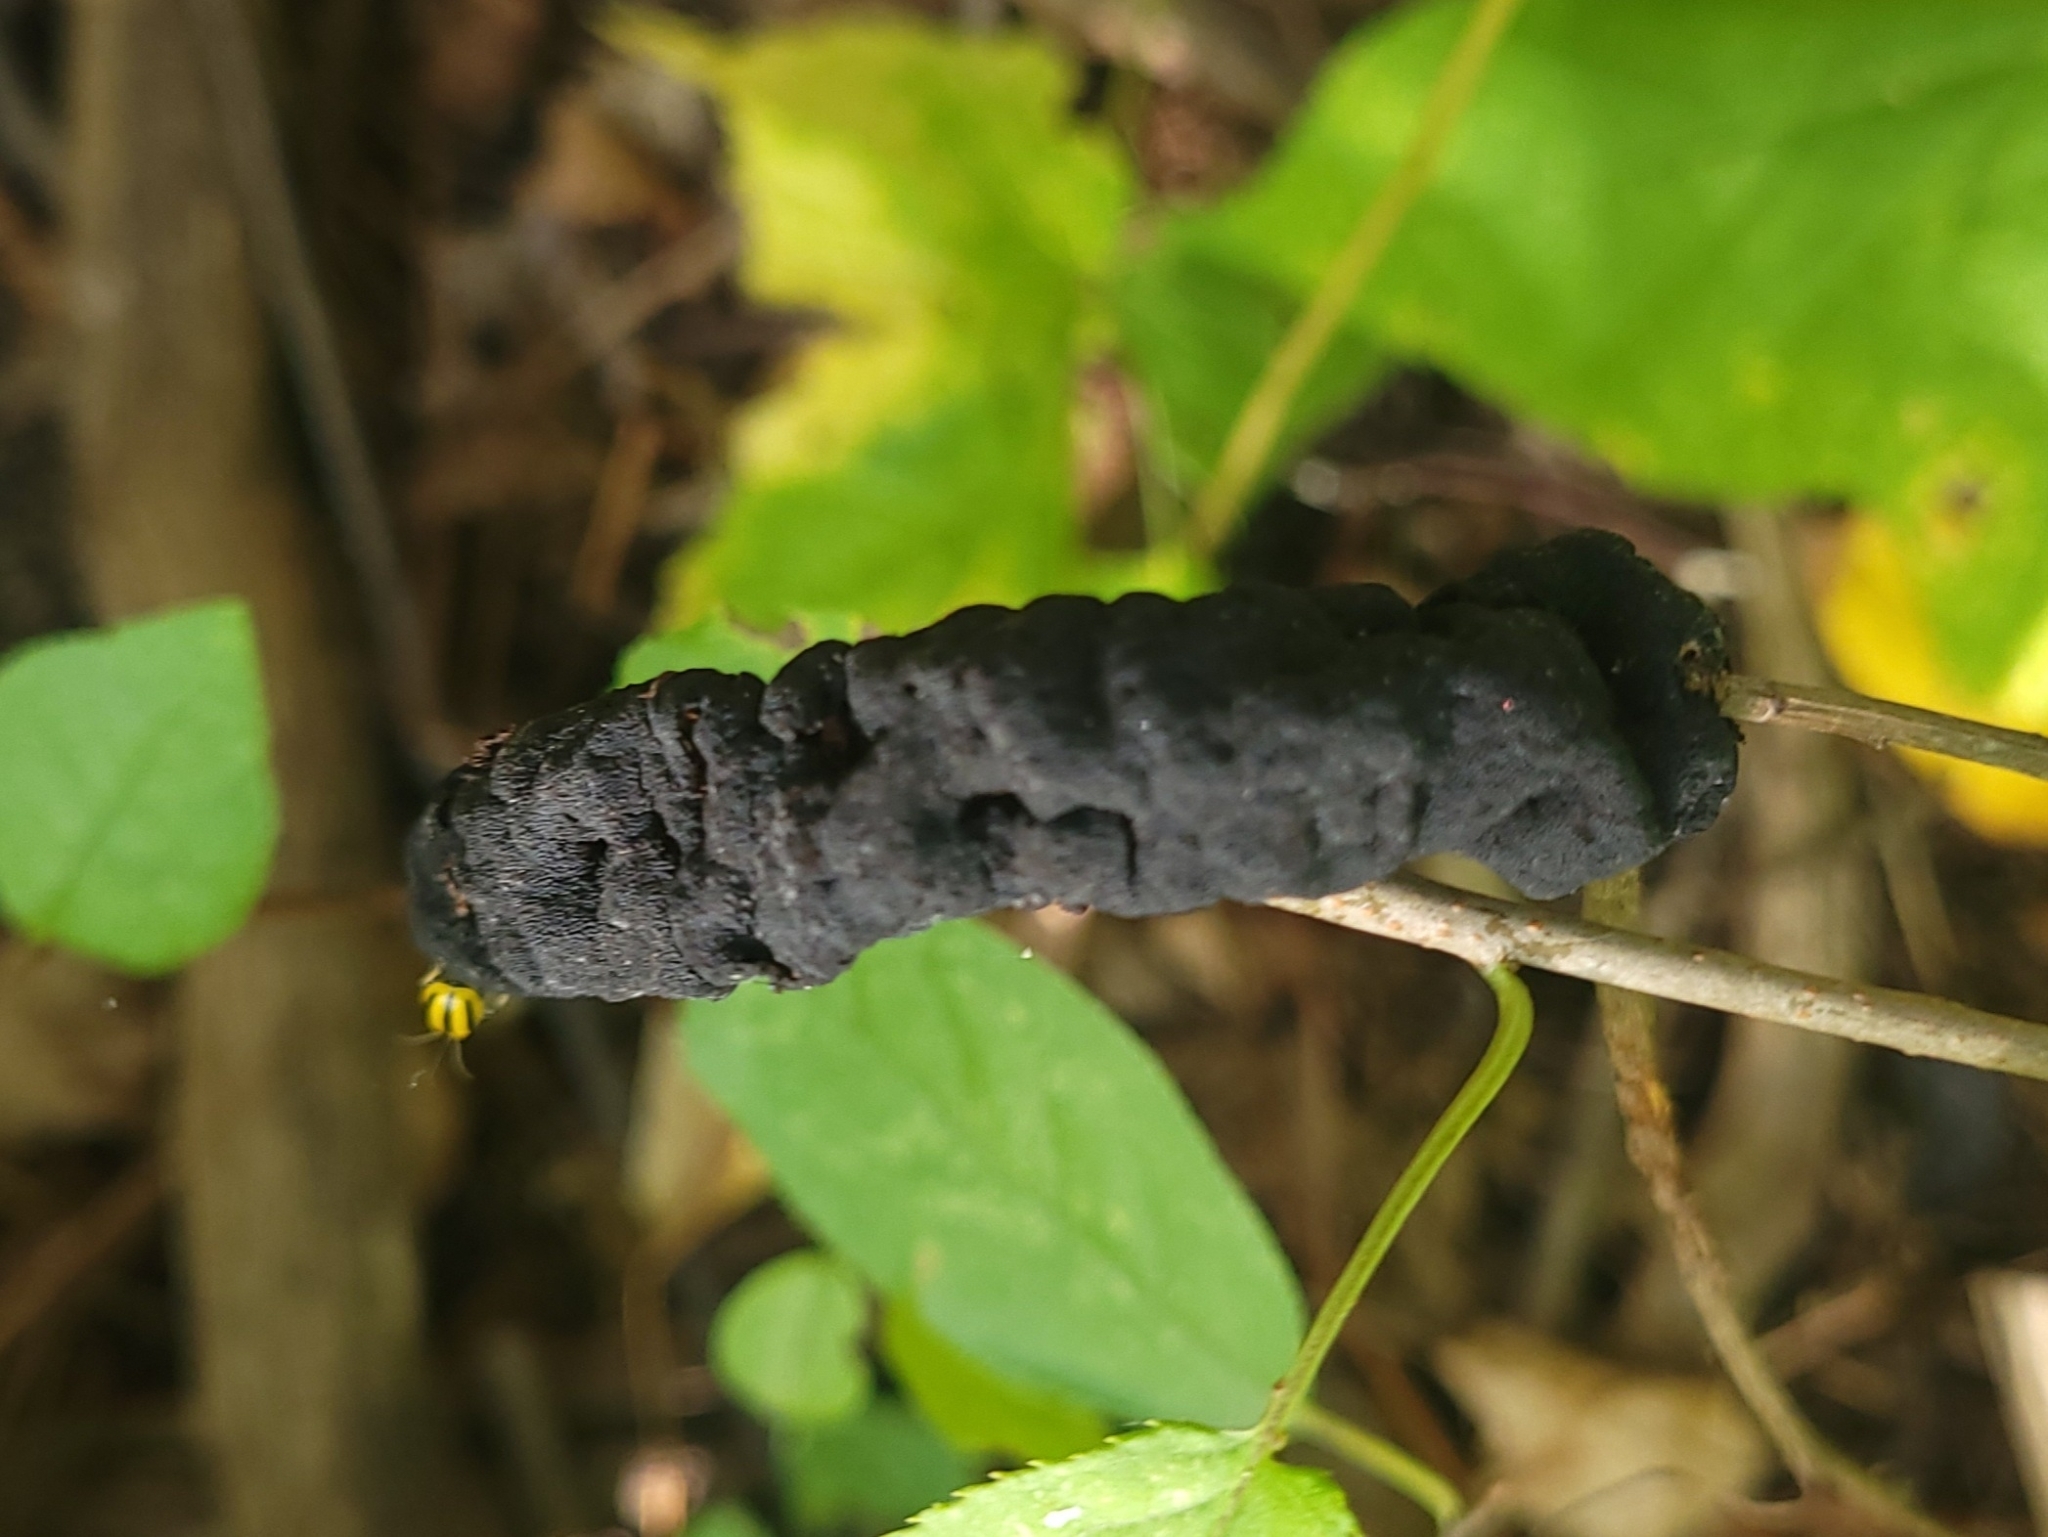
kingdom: Fungi
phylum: Ascomycota
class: Dothideomycetes
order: Venturiales
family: Venturiaceae
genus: Apiosporina
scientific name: Apiosporina morbosa
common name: Black knot
